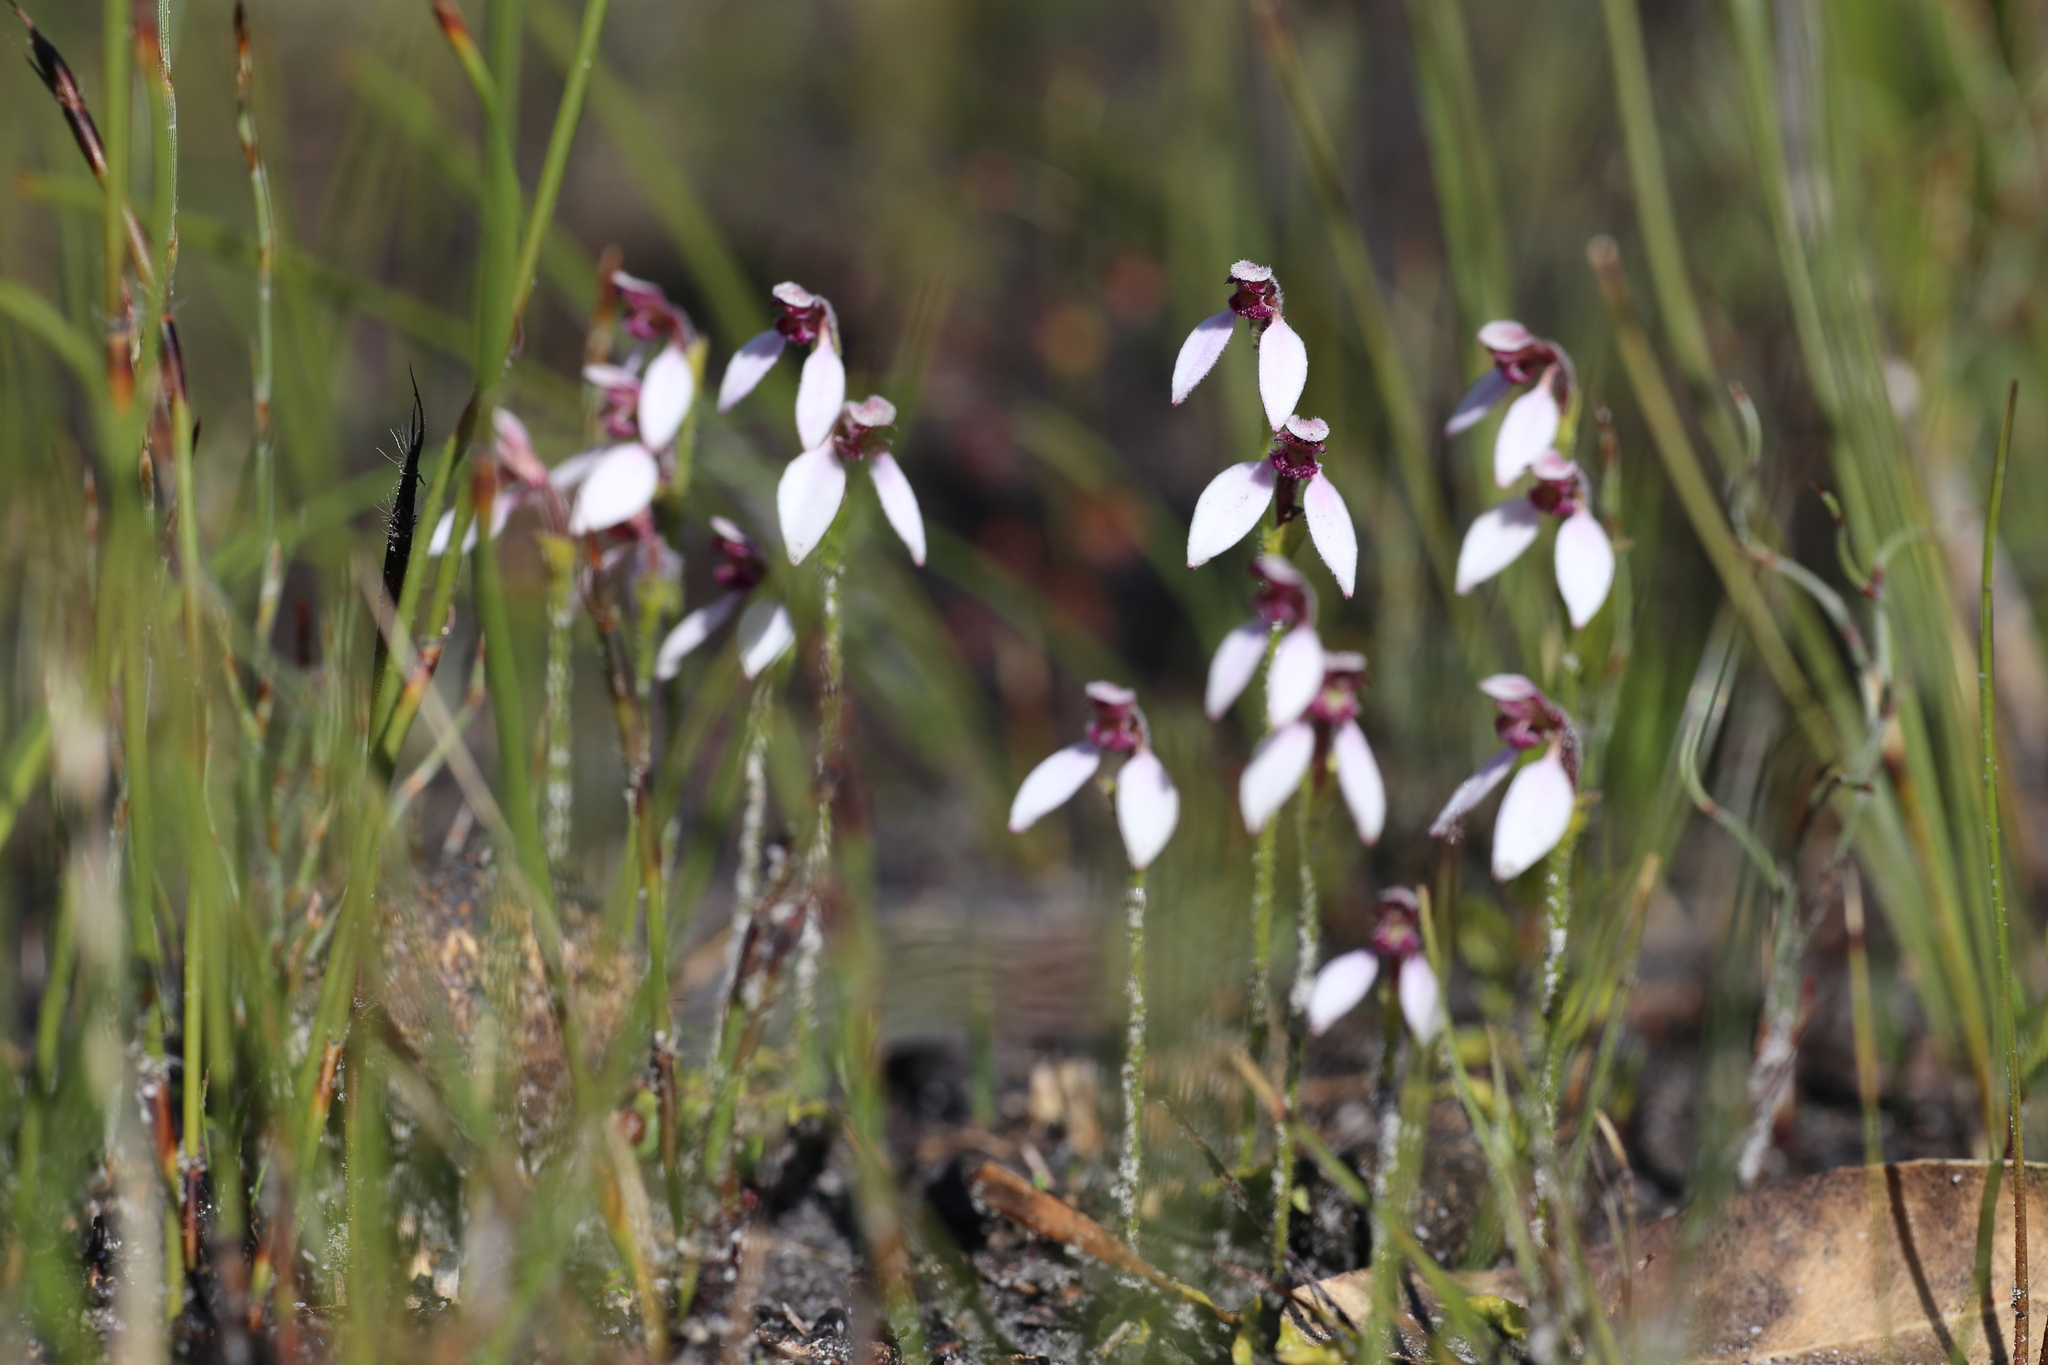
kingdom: Plantae
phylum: Tracheophyta
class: Liliopsida
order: Asparagales
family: Orchidaceae
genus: Eriochilus
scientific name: Eriochilus scaber
